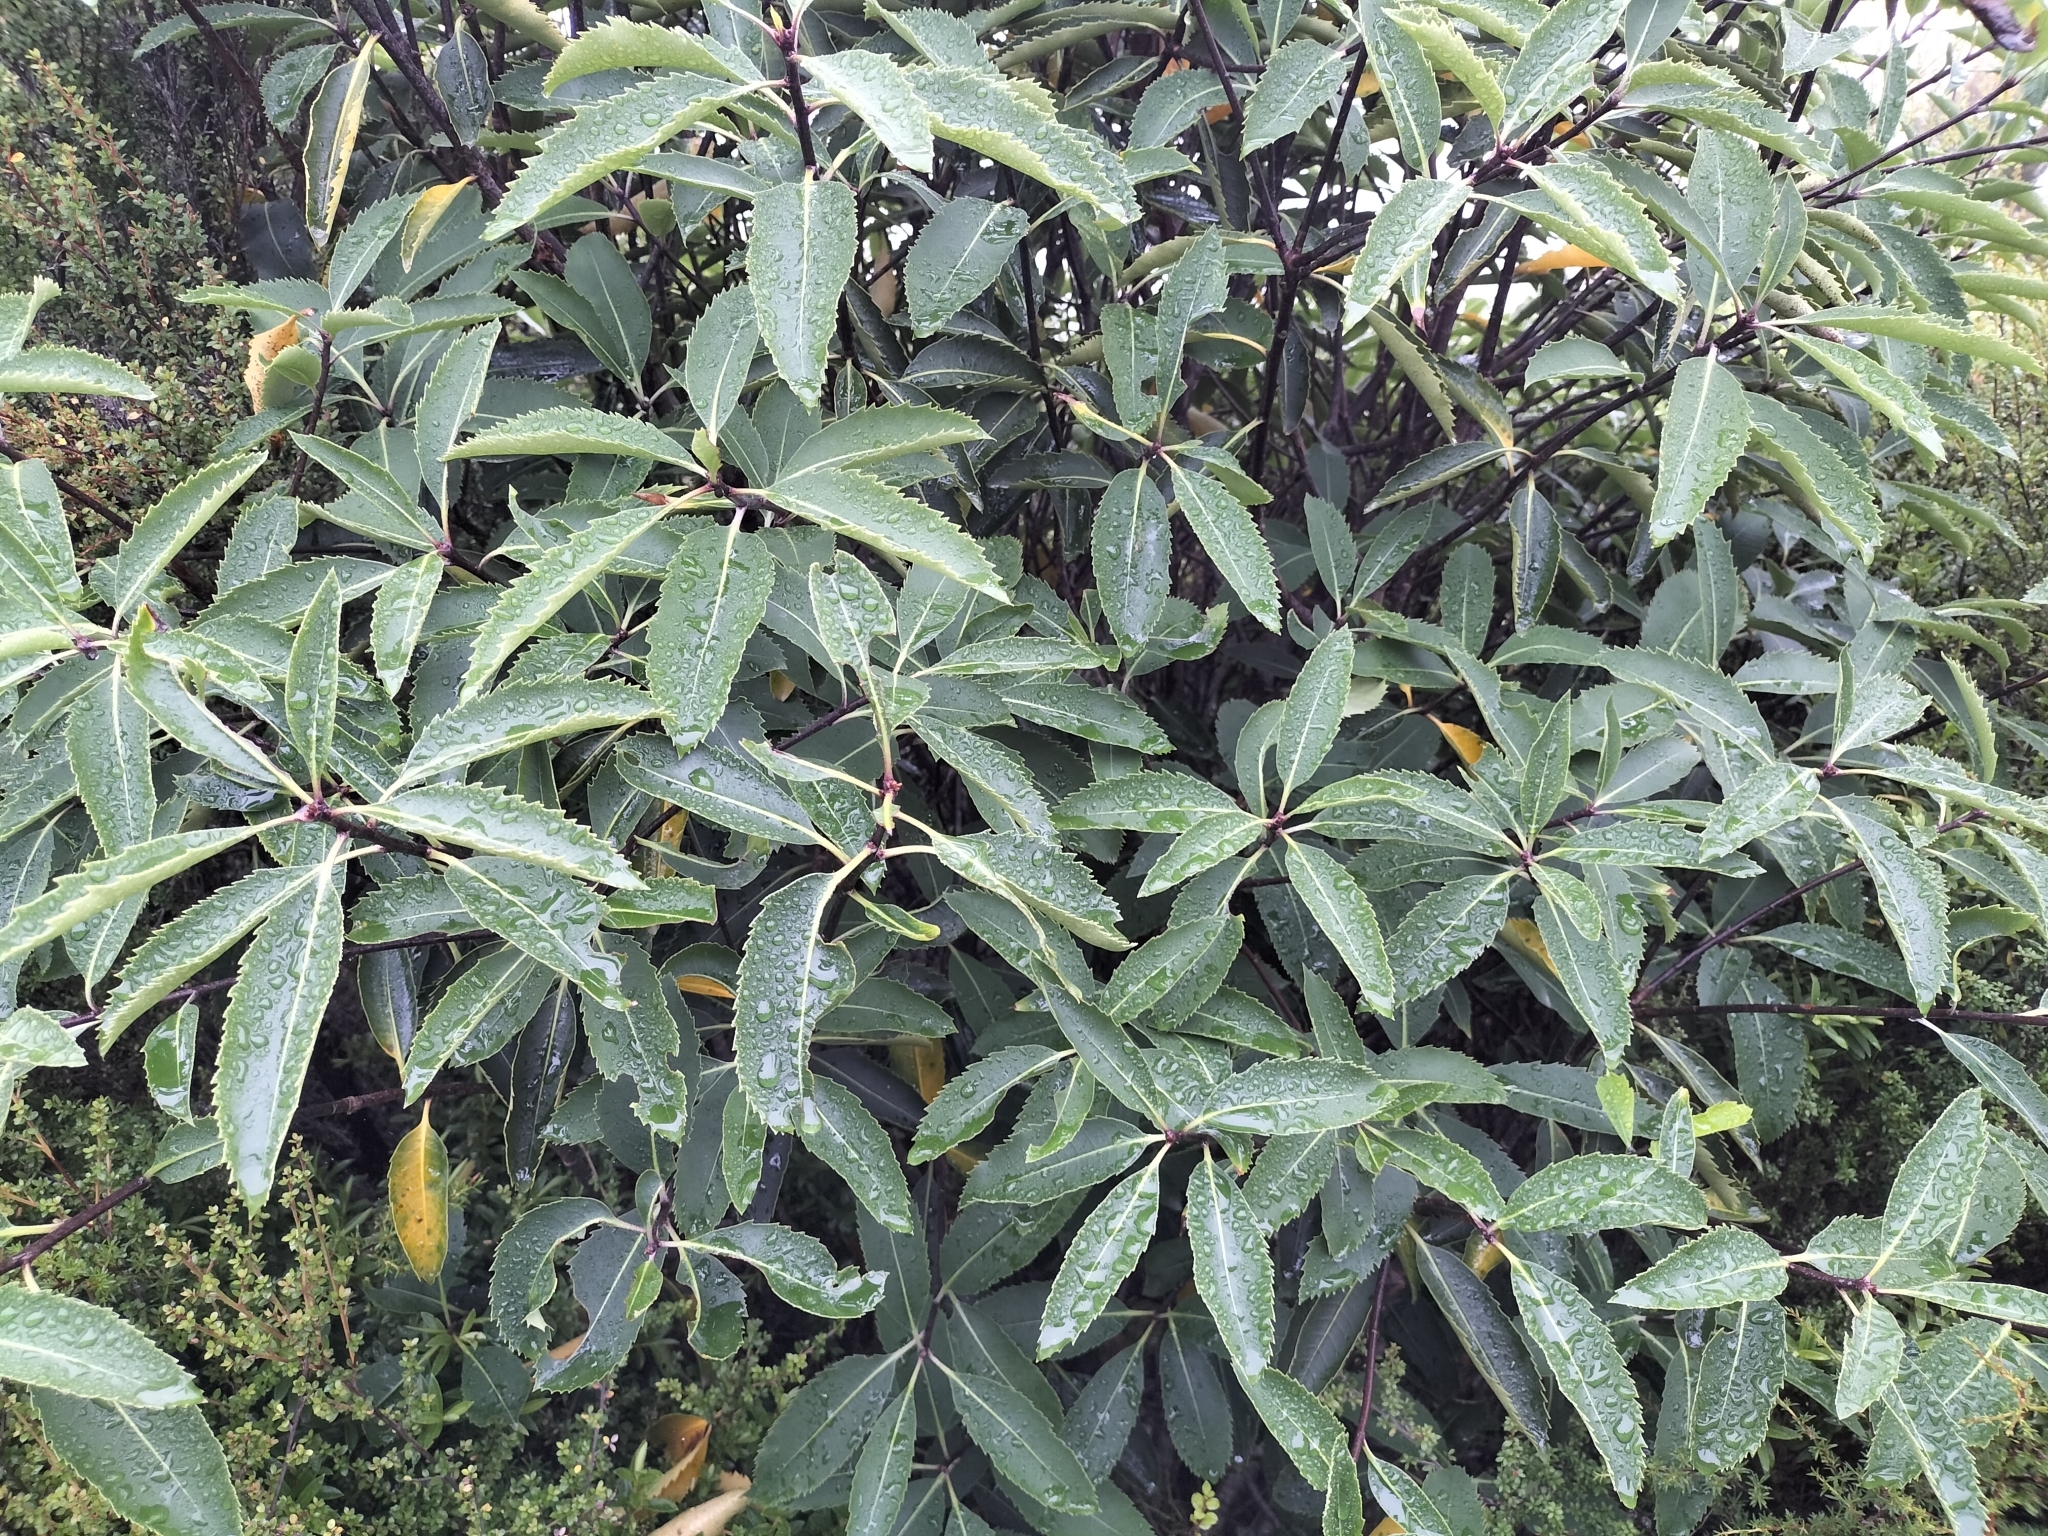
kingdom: Plantae
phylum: Tracheophyta
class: Magnoliopsida
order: Apiales
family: Pittosporaceae
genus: Pittosporum
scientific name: Pittosporum dallii
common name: Dalls pittosporum
